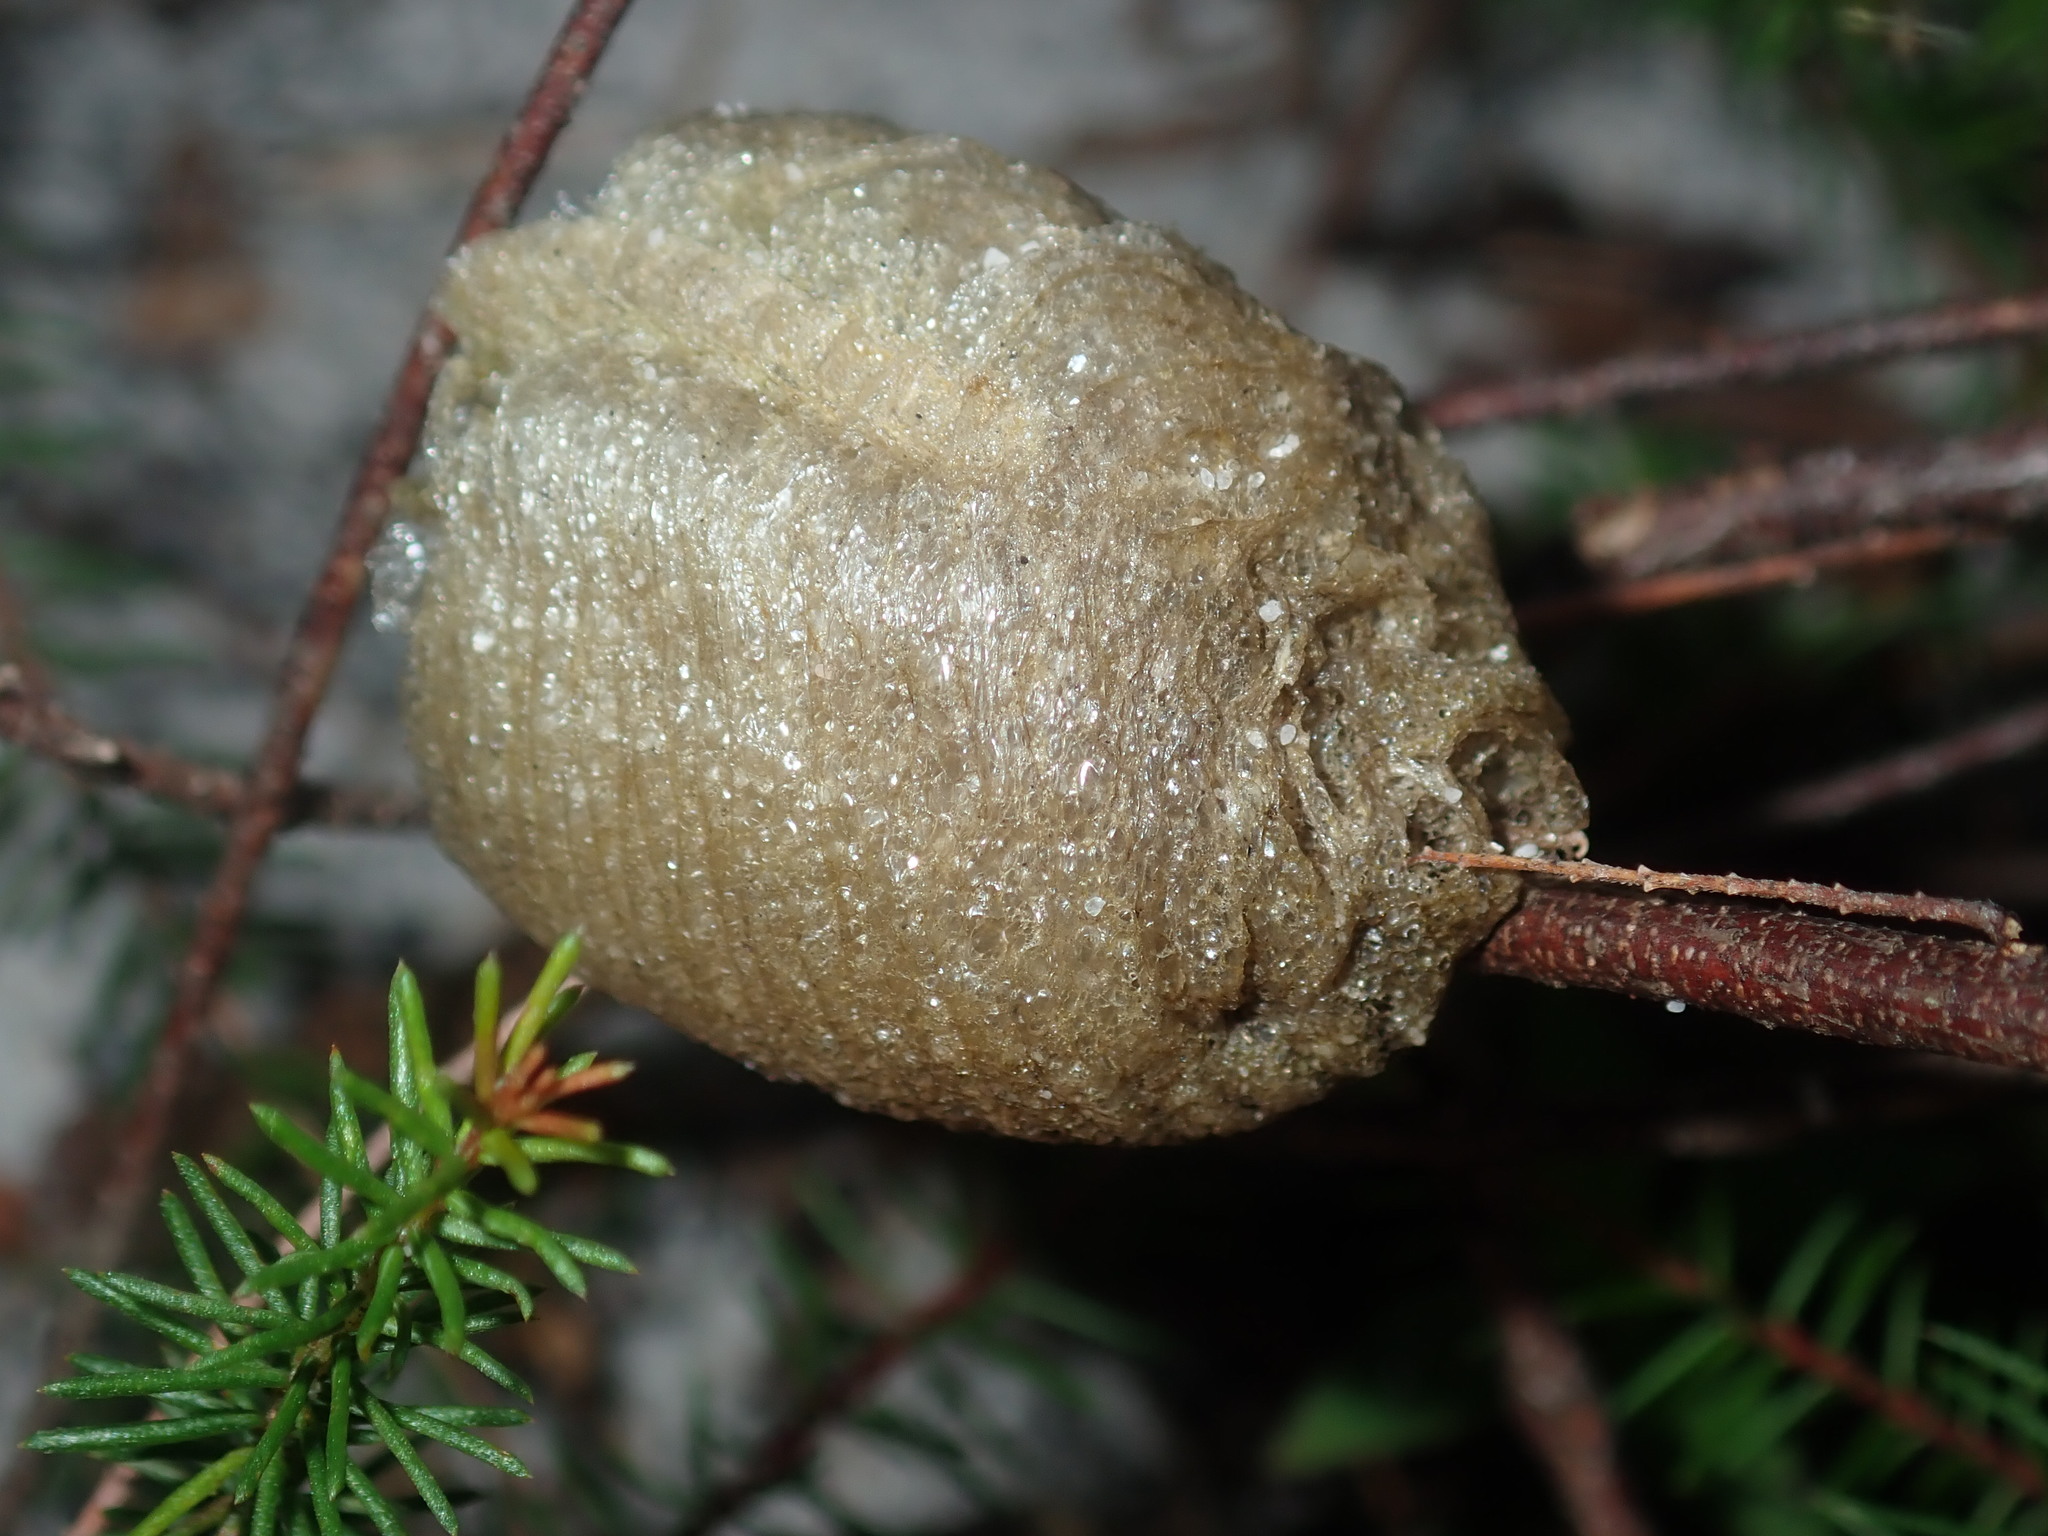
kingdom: Animalia
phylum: Arthropoda
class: Insecta
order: Mantodea
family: Mantidae
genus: Archimantis
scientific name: Archimantis latistyla
